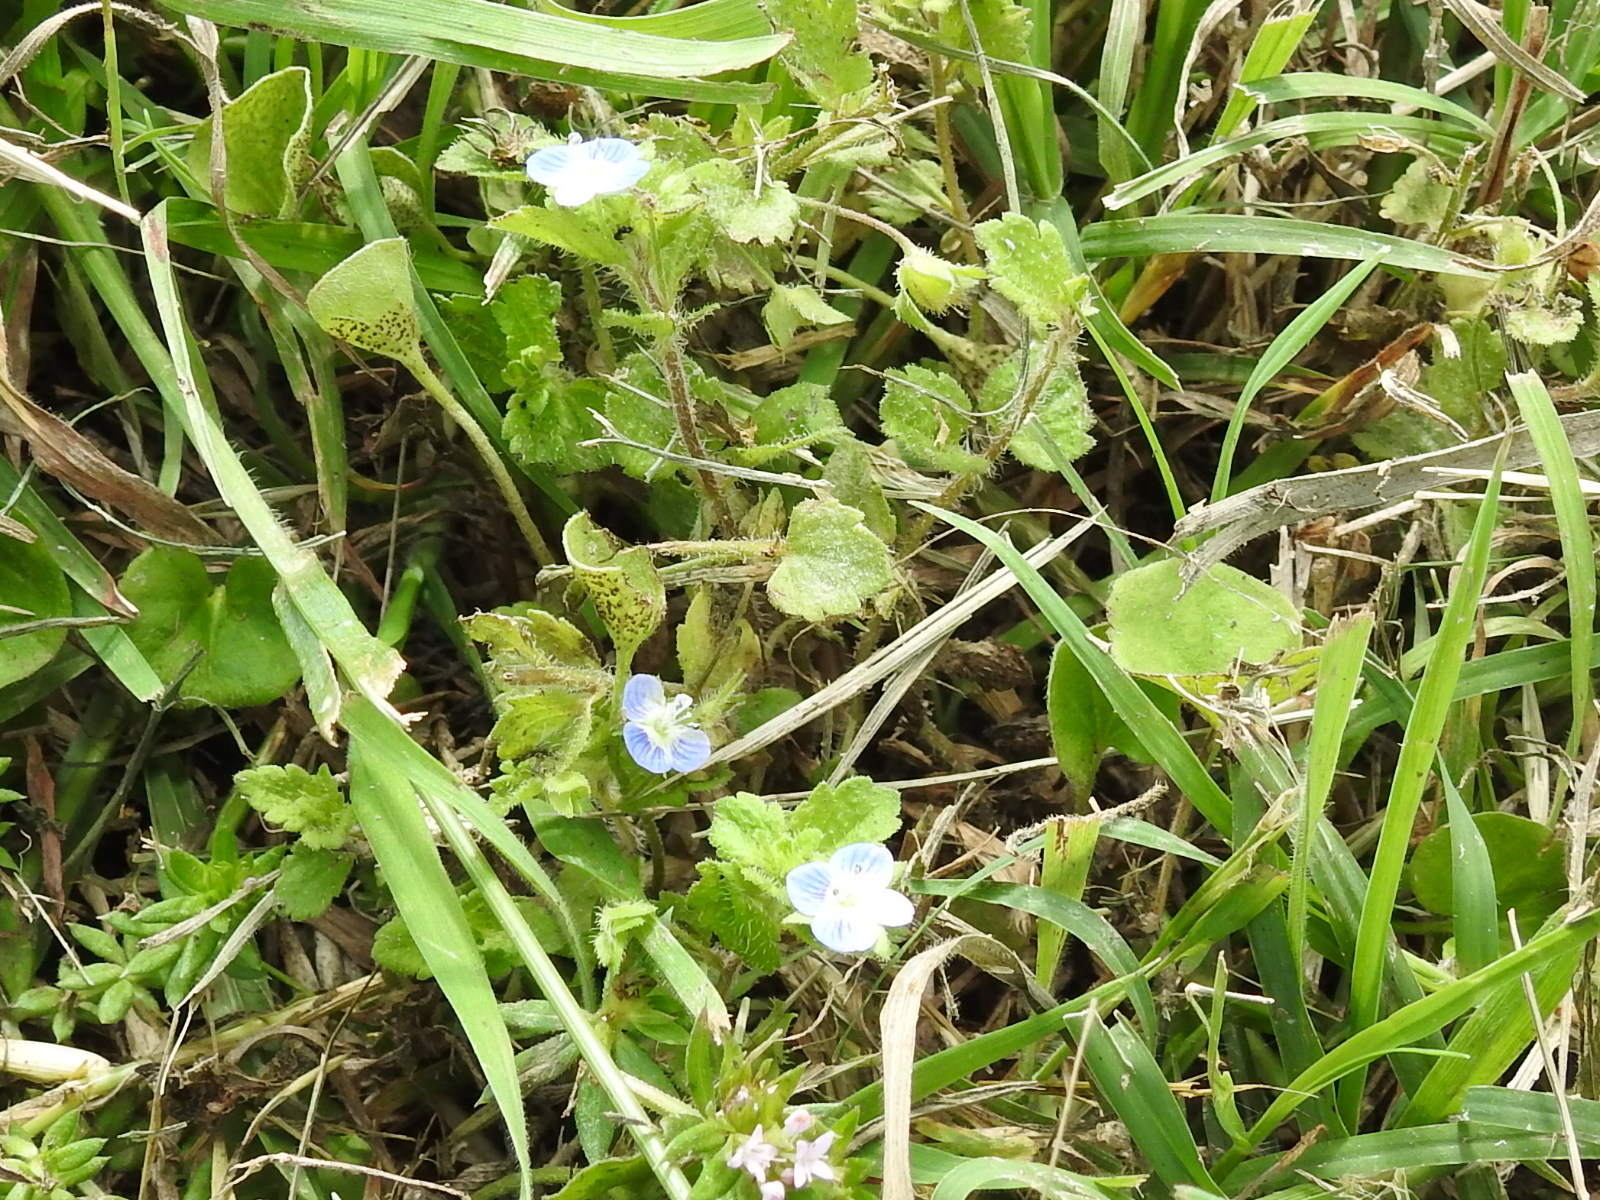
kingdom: Plantae
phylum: Tracheophyta
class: Magnoliopsida
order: Lamiales
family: Plantaginaceae
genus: Veronica
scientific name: Veronica persica
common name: Common field-speedwell
